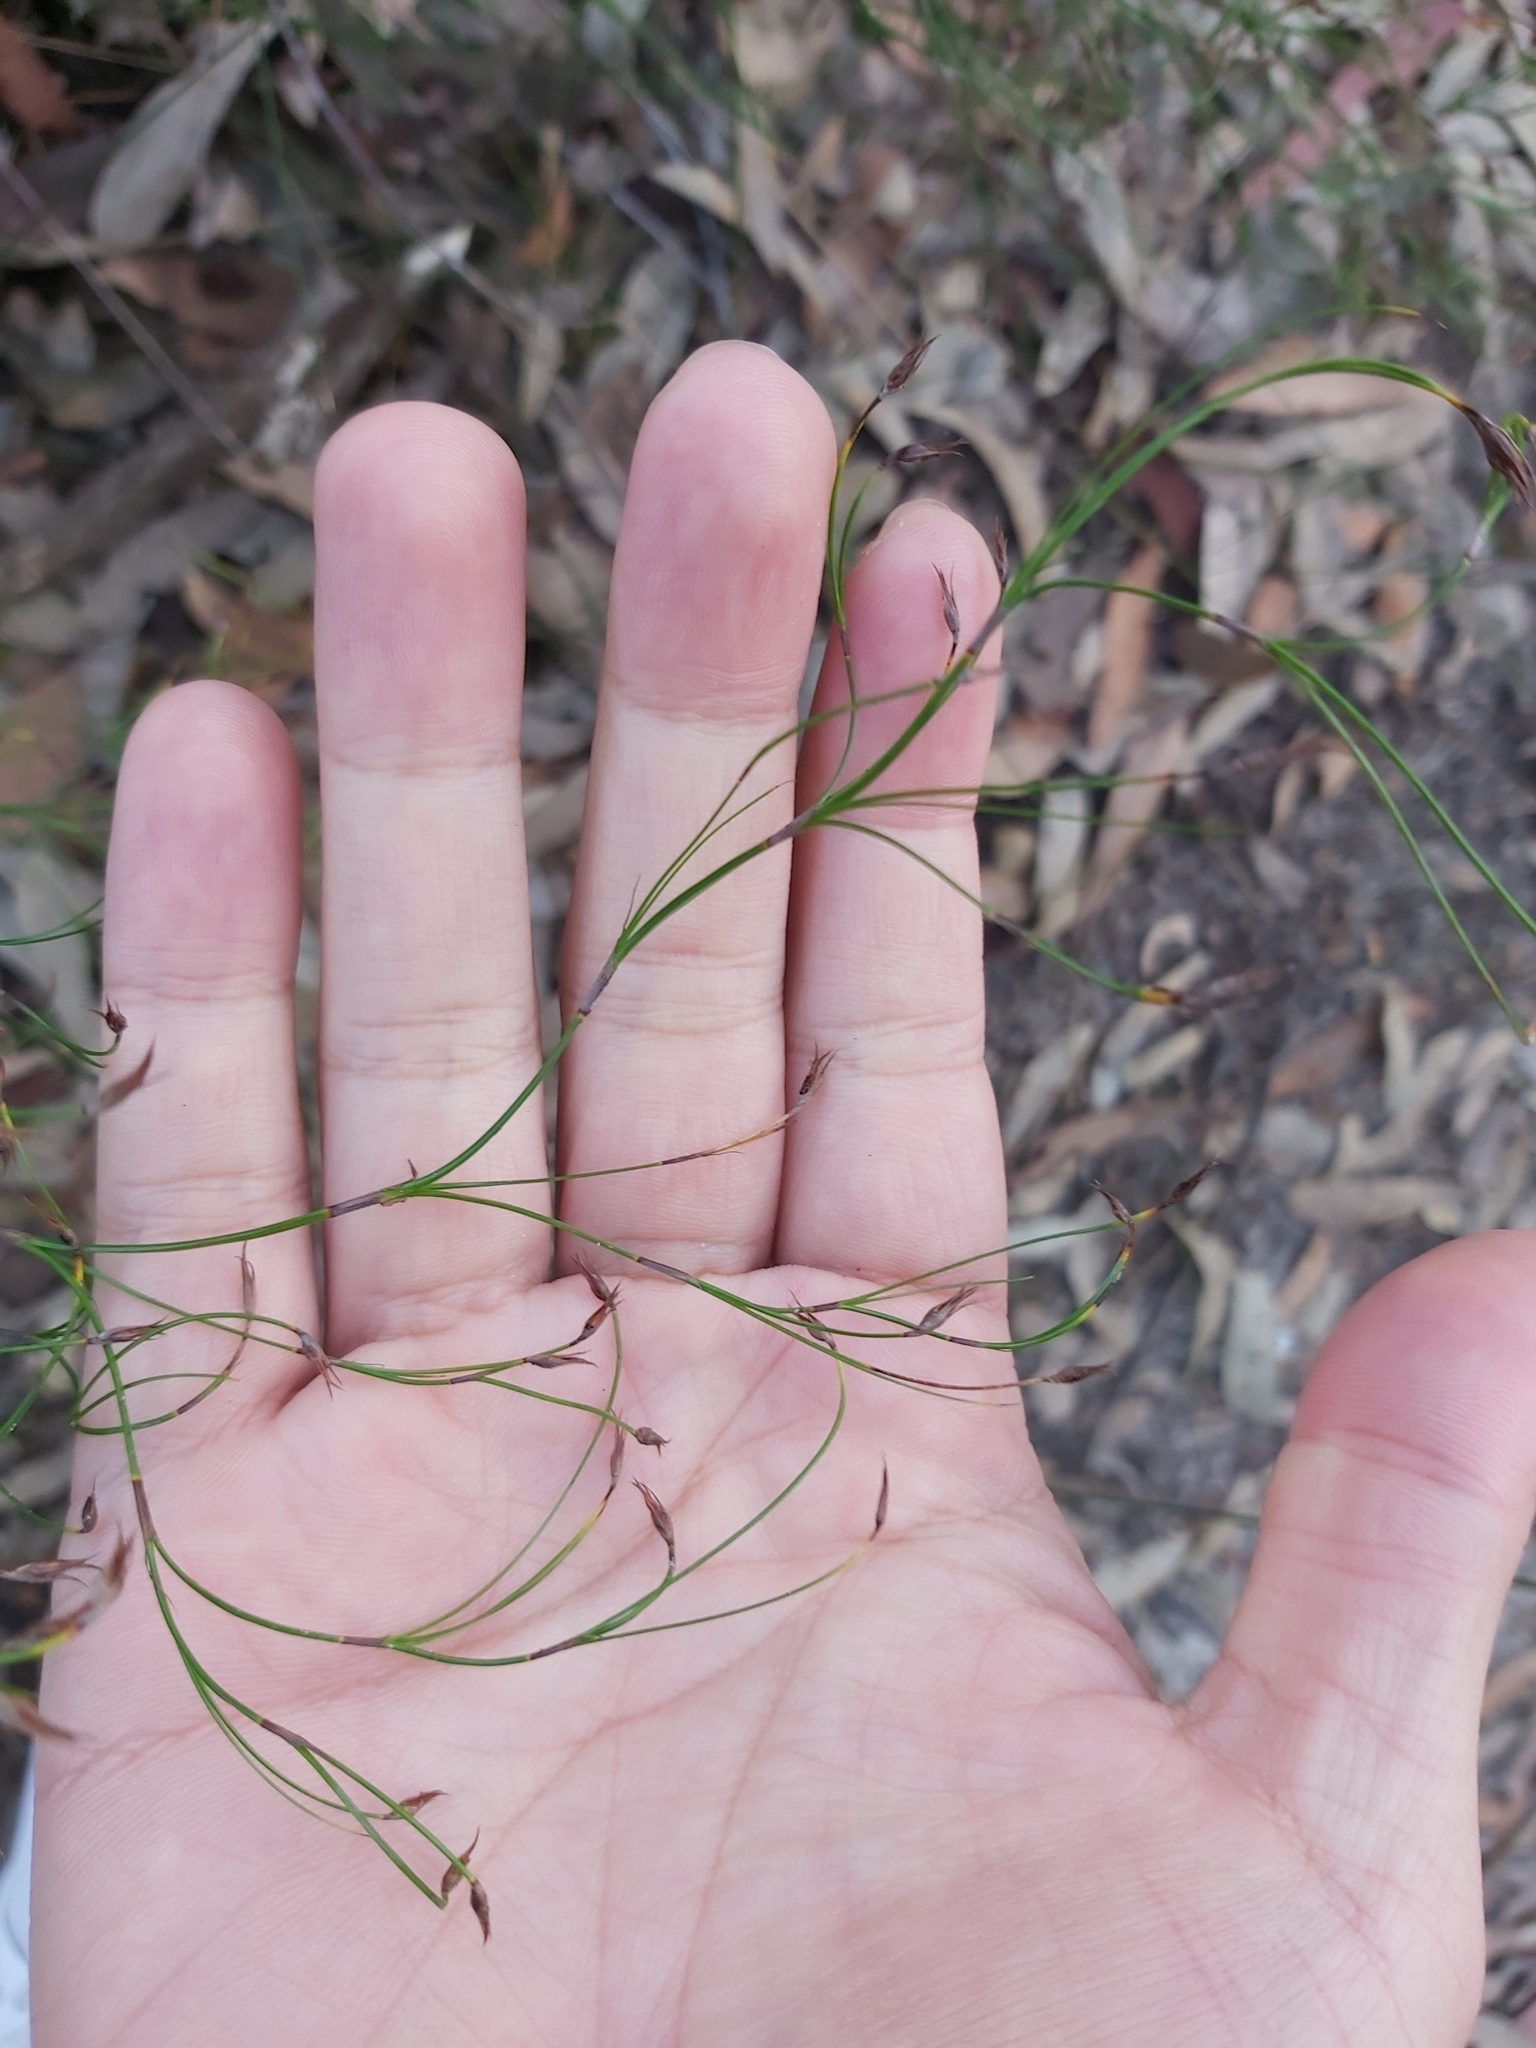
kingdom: Plantae
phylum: Tracheophyta
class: Liliopsida
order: Poales
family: Cyperaceae
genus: Caustis
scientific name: Caustis flexuosa
